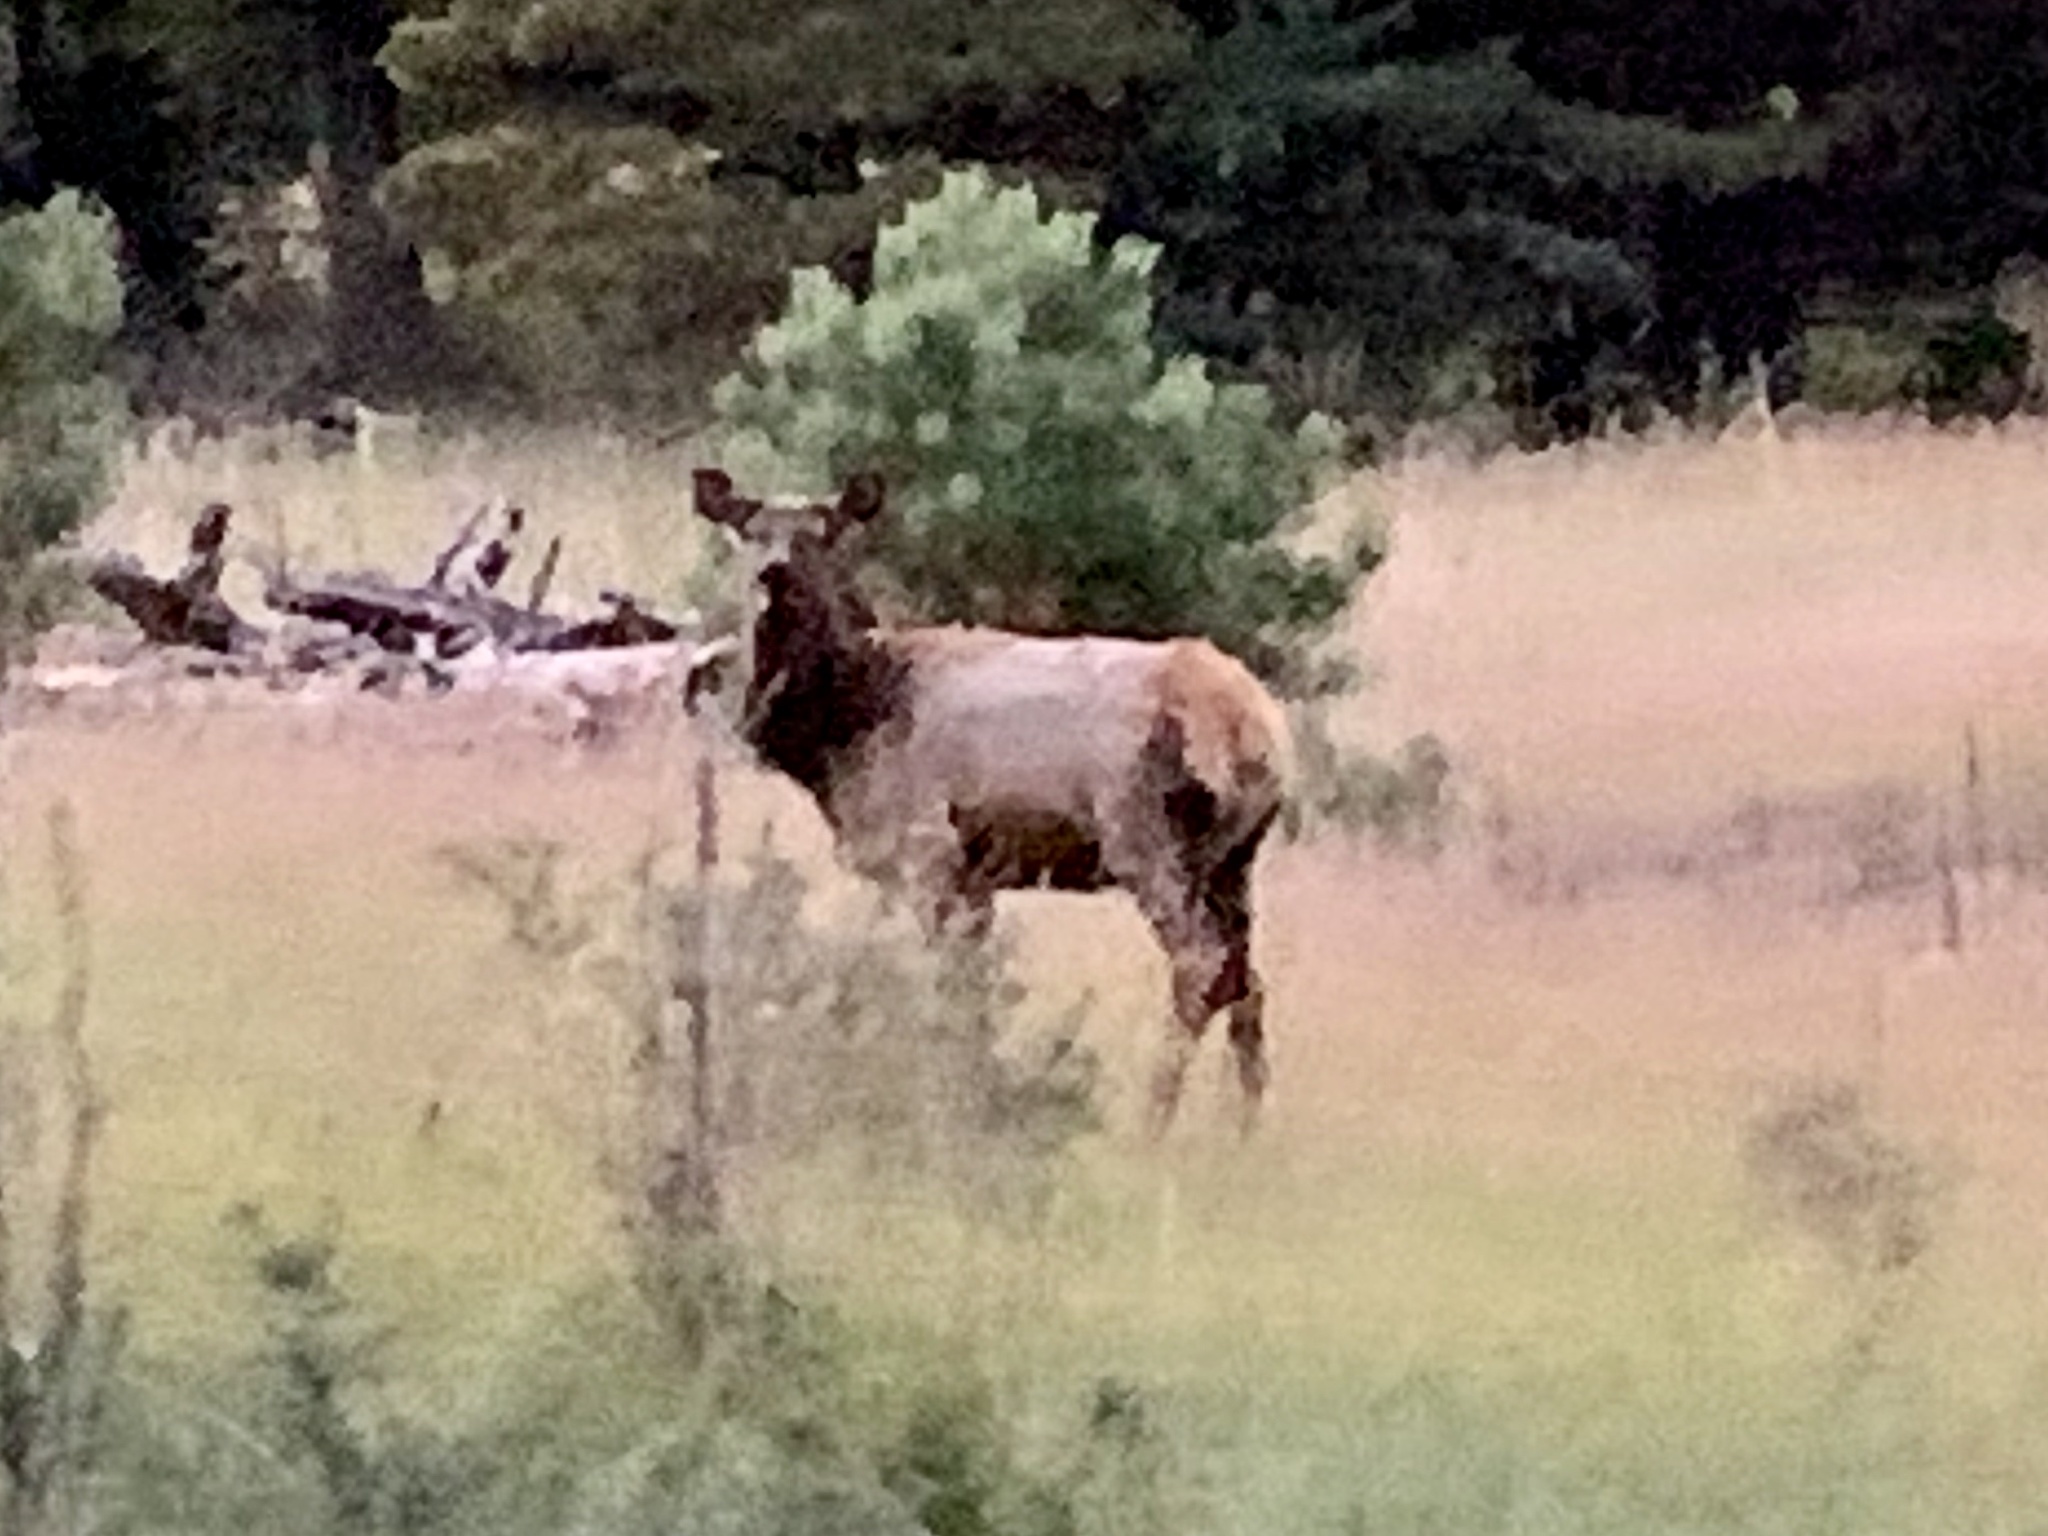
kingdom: Animalia
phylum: Chordata
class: Mammalia
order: Artiodactyla
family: Cervidae
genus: Cervus
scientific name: Cervus elaphus
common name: Red deer
